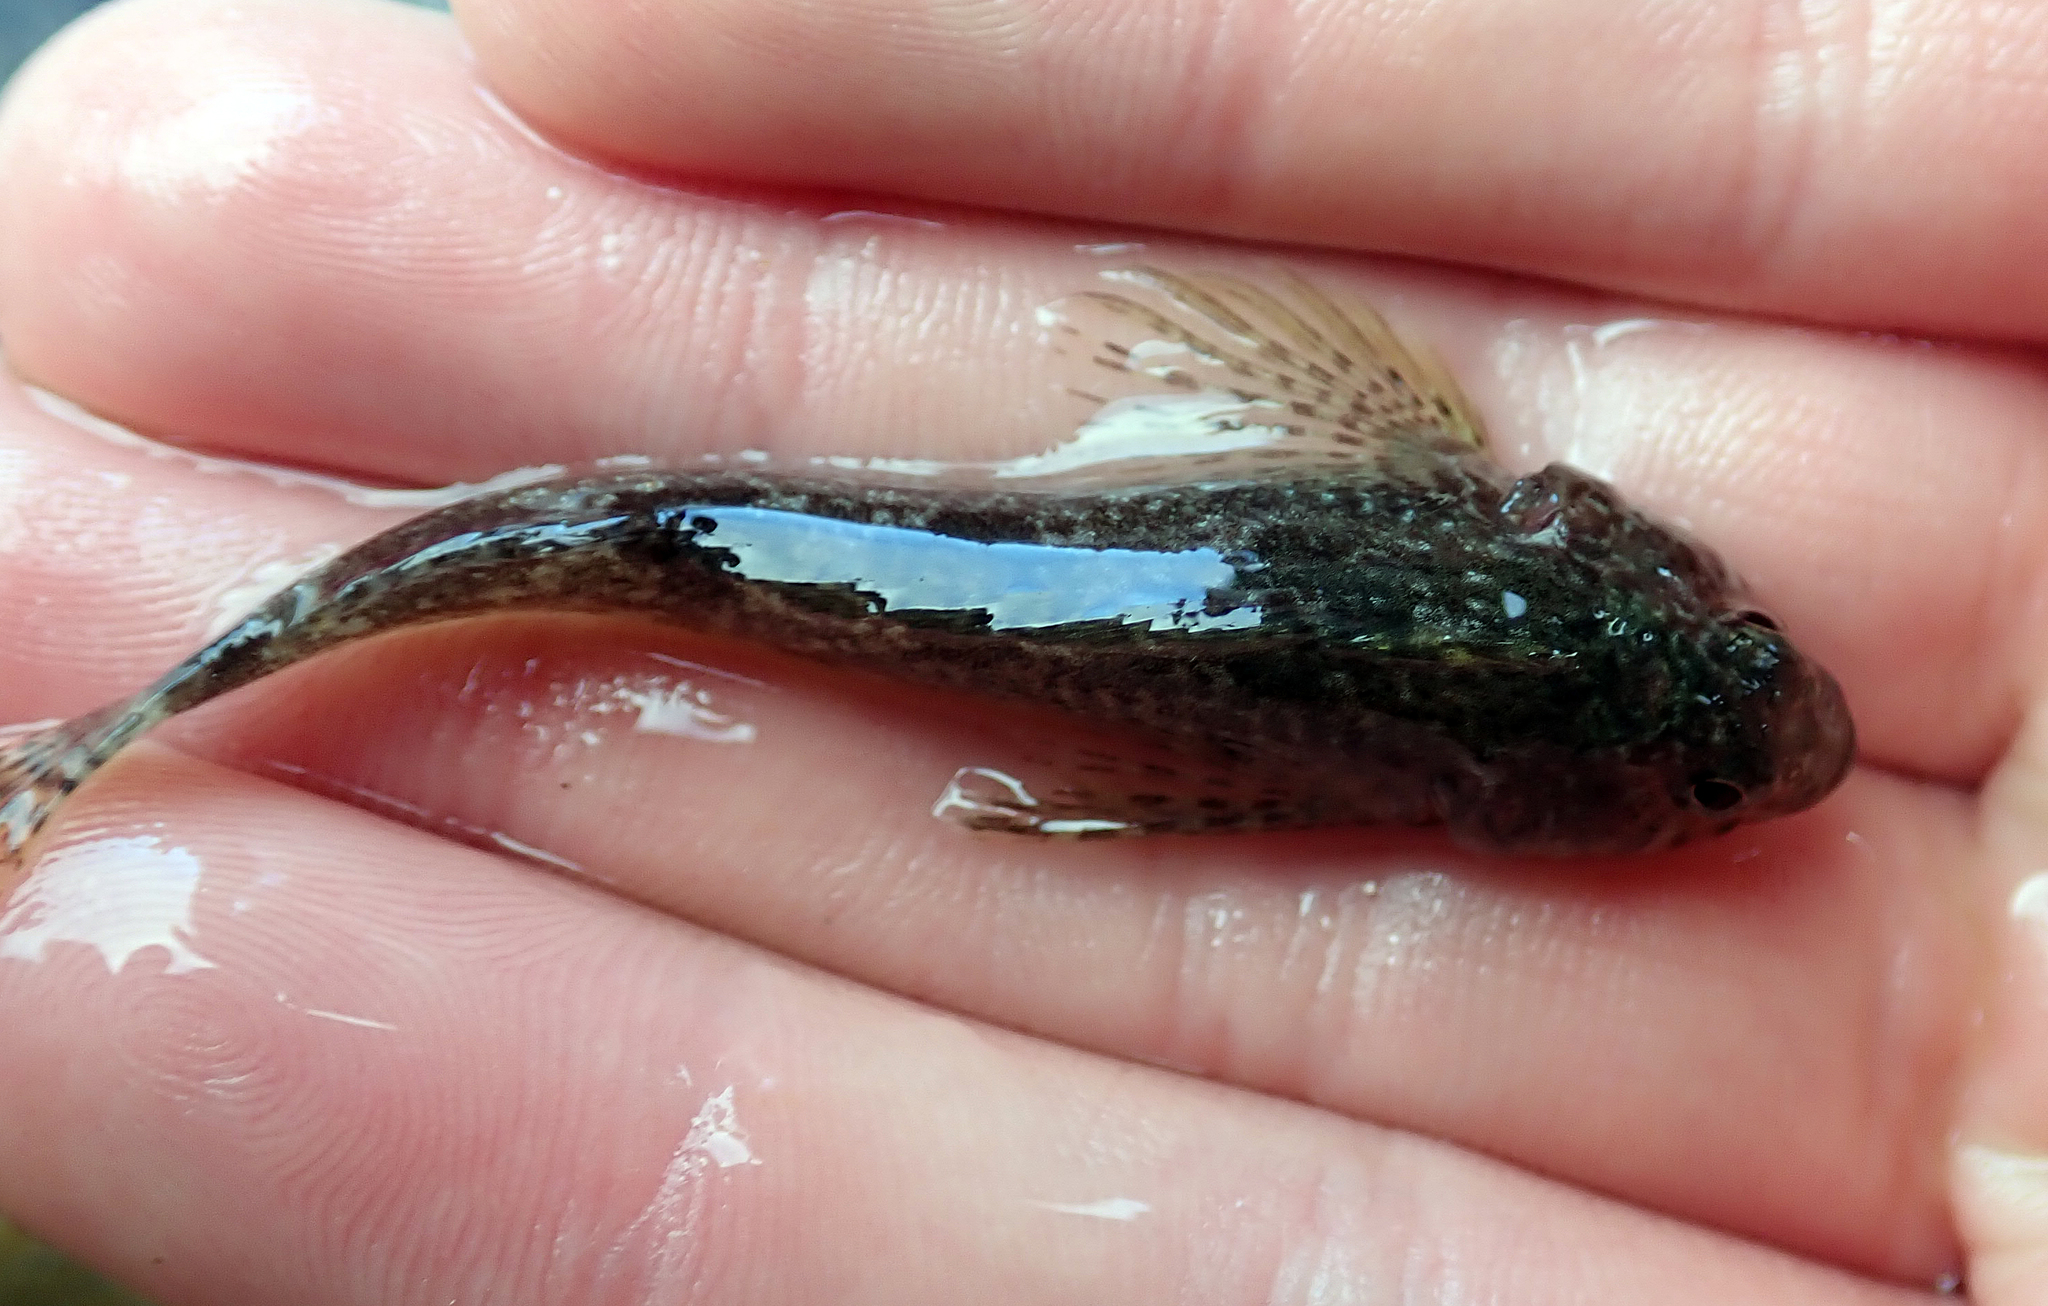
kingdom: Animalia
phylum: Chordata
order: Perciformes
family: Tripterygiidae
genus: Bellapiscis
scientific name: Bellapiscis medius
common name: Twister
